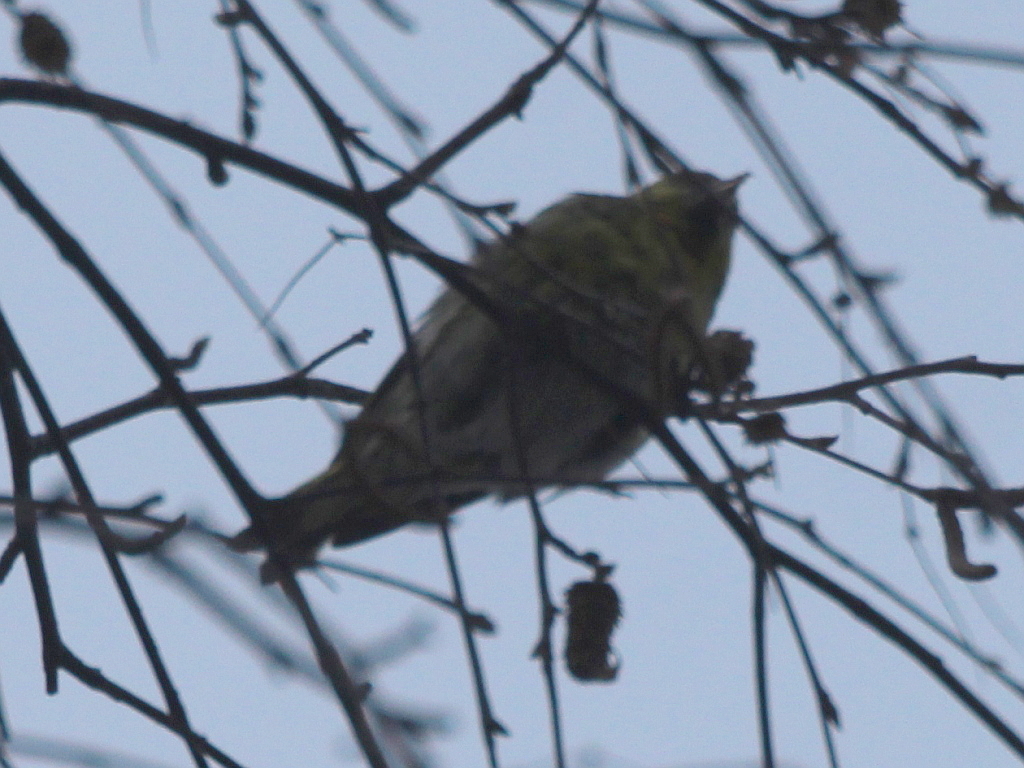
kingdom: Animalia
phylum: Chordata
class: Aves
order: Passeriformes
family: Fringillidae
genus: Spinus
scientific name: Spinus spinus
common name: Eurasian siskin
